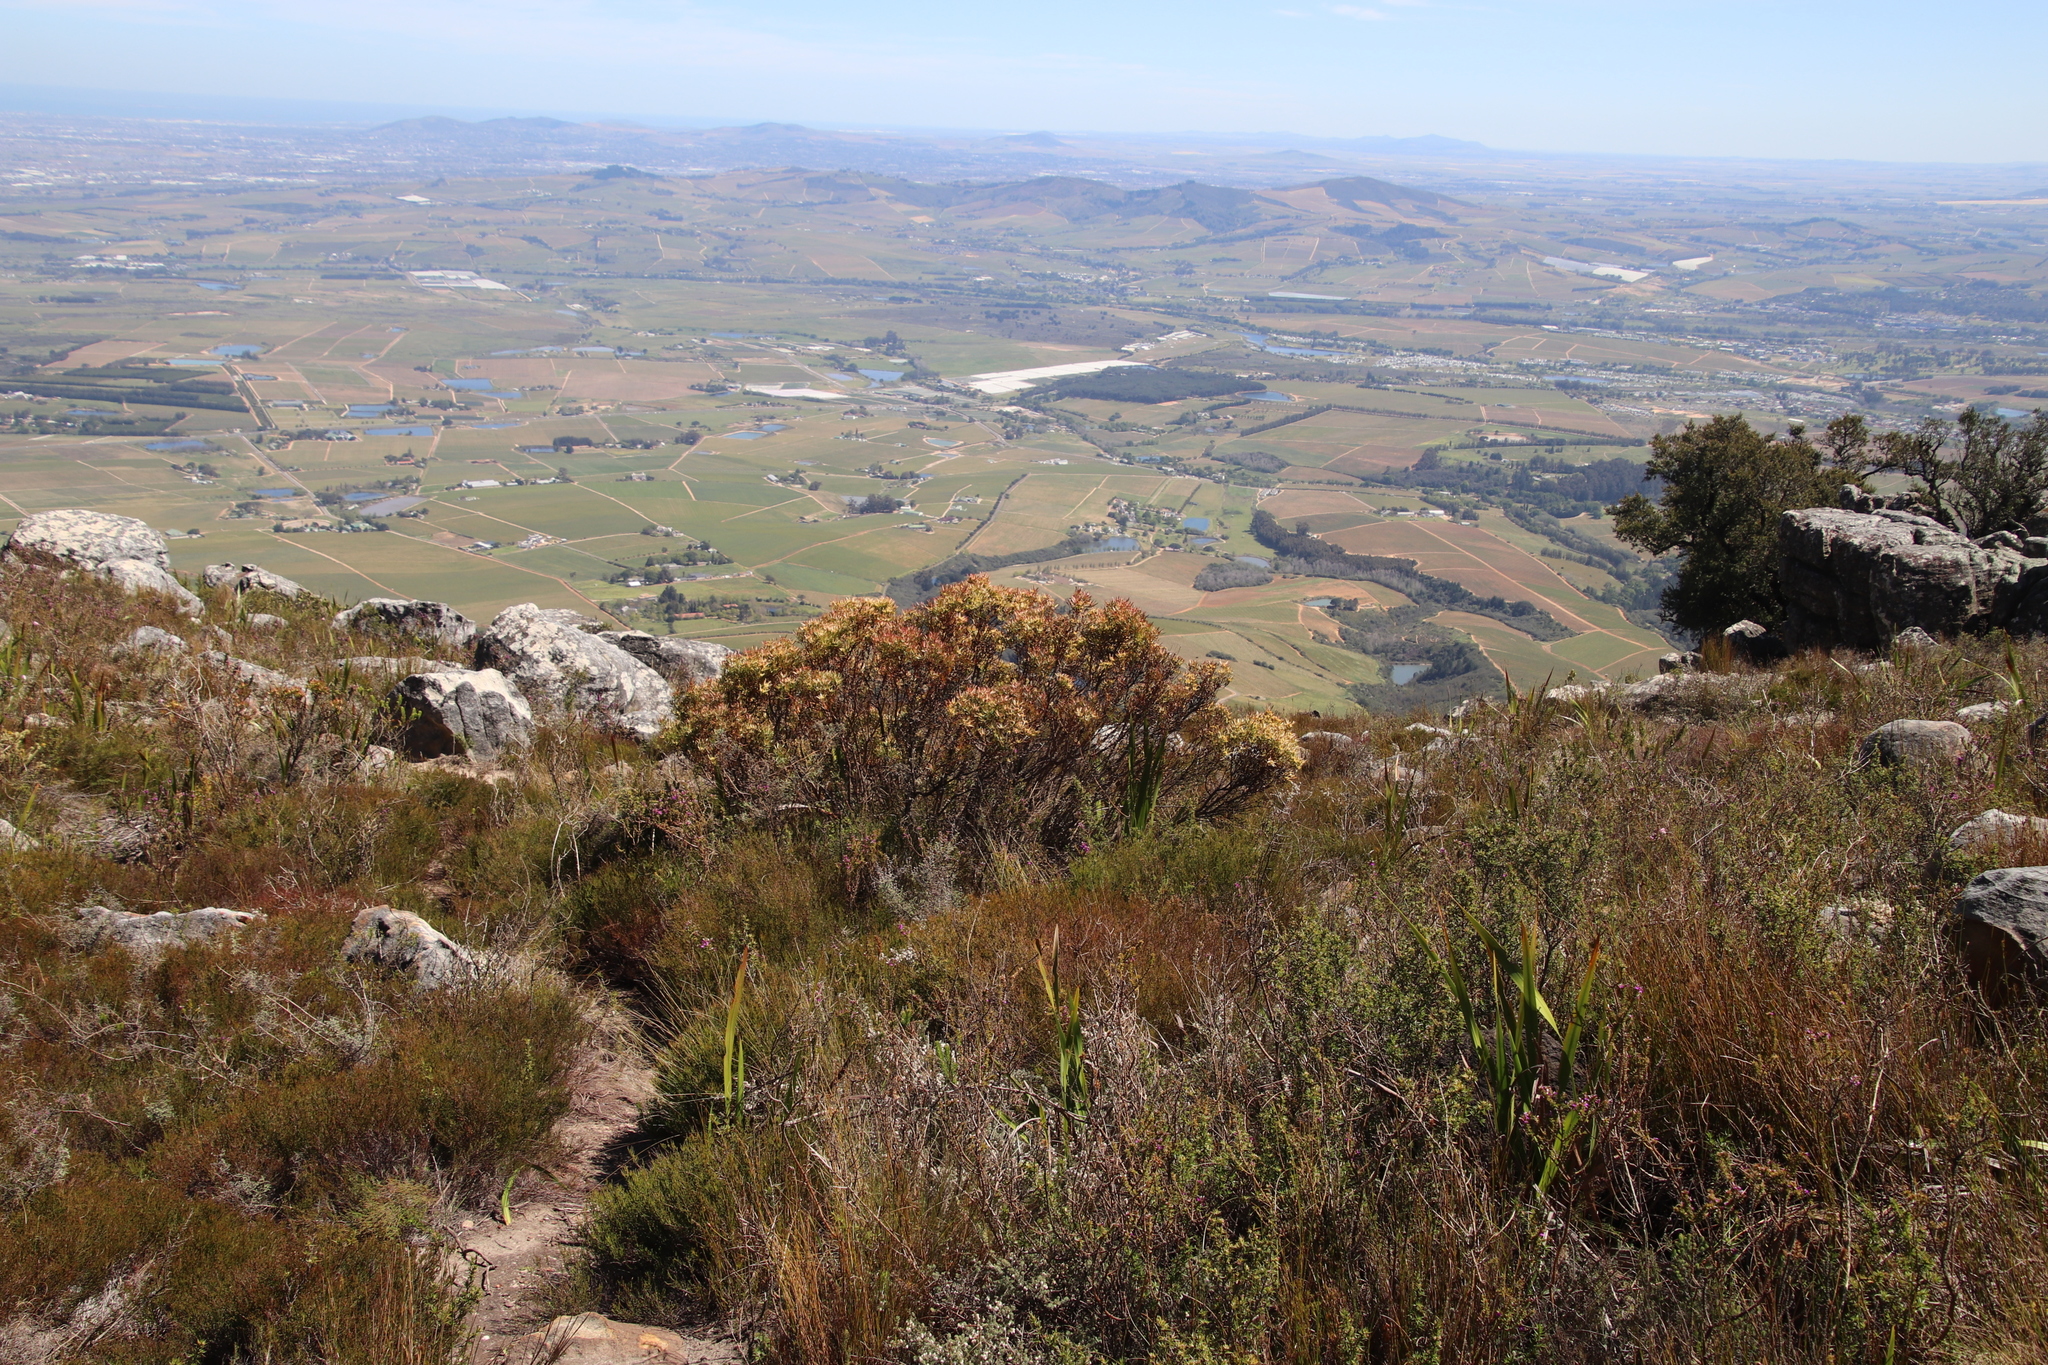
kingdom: Plantae
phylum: Tracheophyta
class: Magnoliopsida
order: Proteales
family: Proteaceae
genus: Leucadendron
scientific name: Leucadendron spissifolium
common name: Spear-leaf conebush
